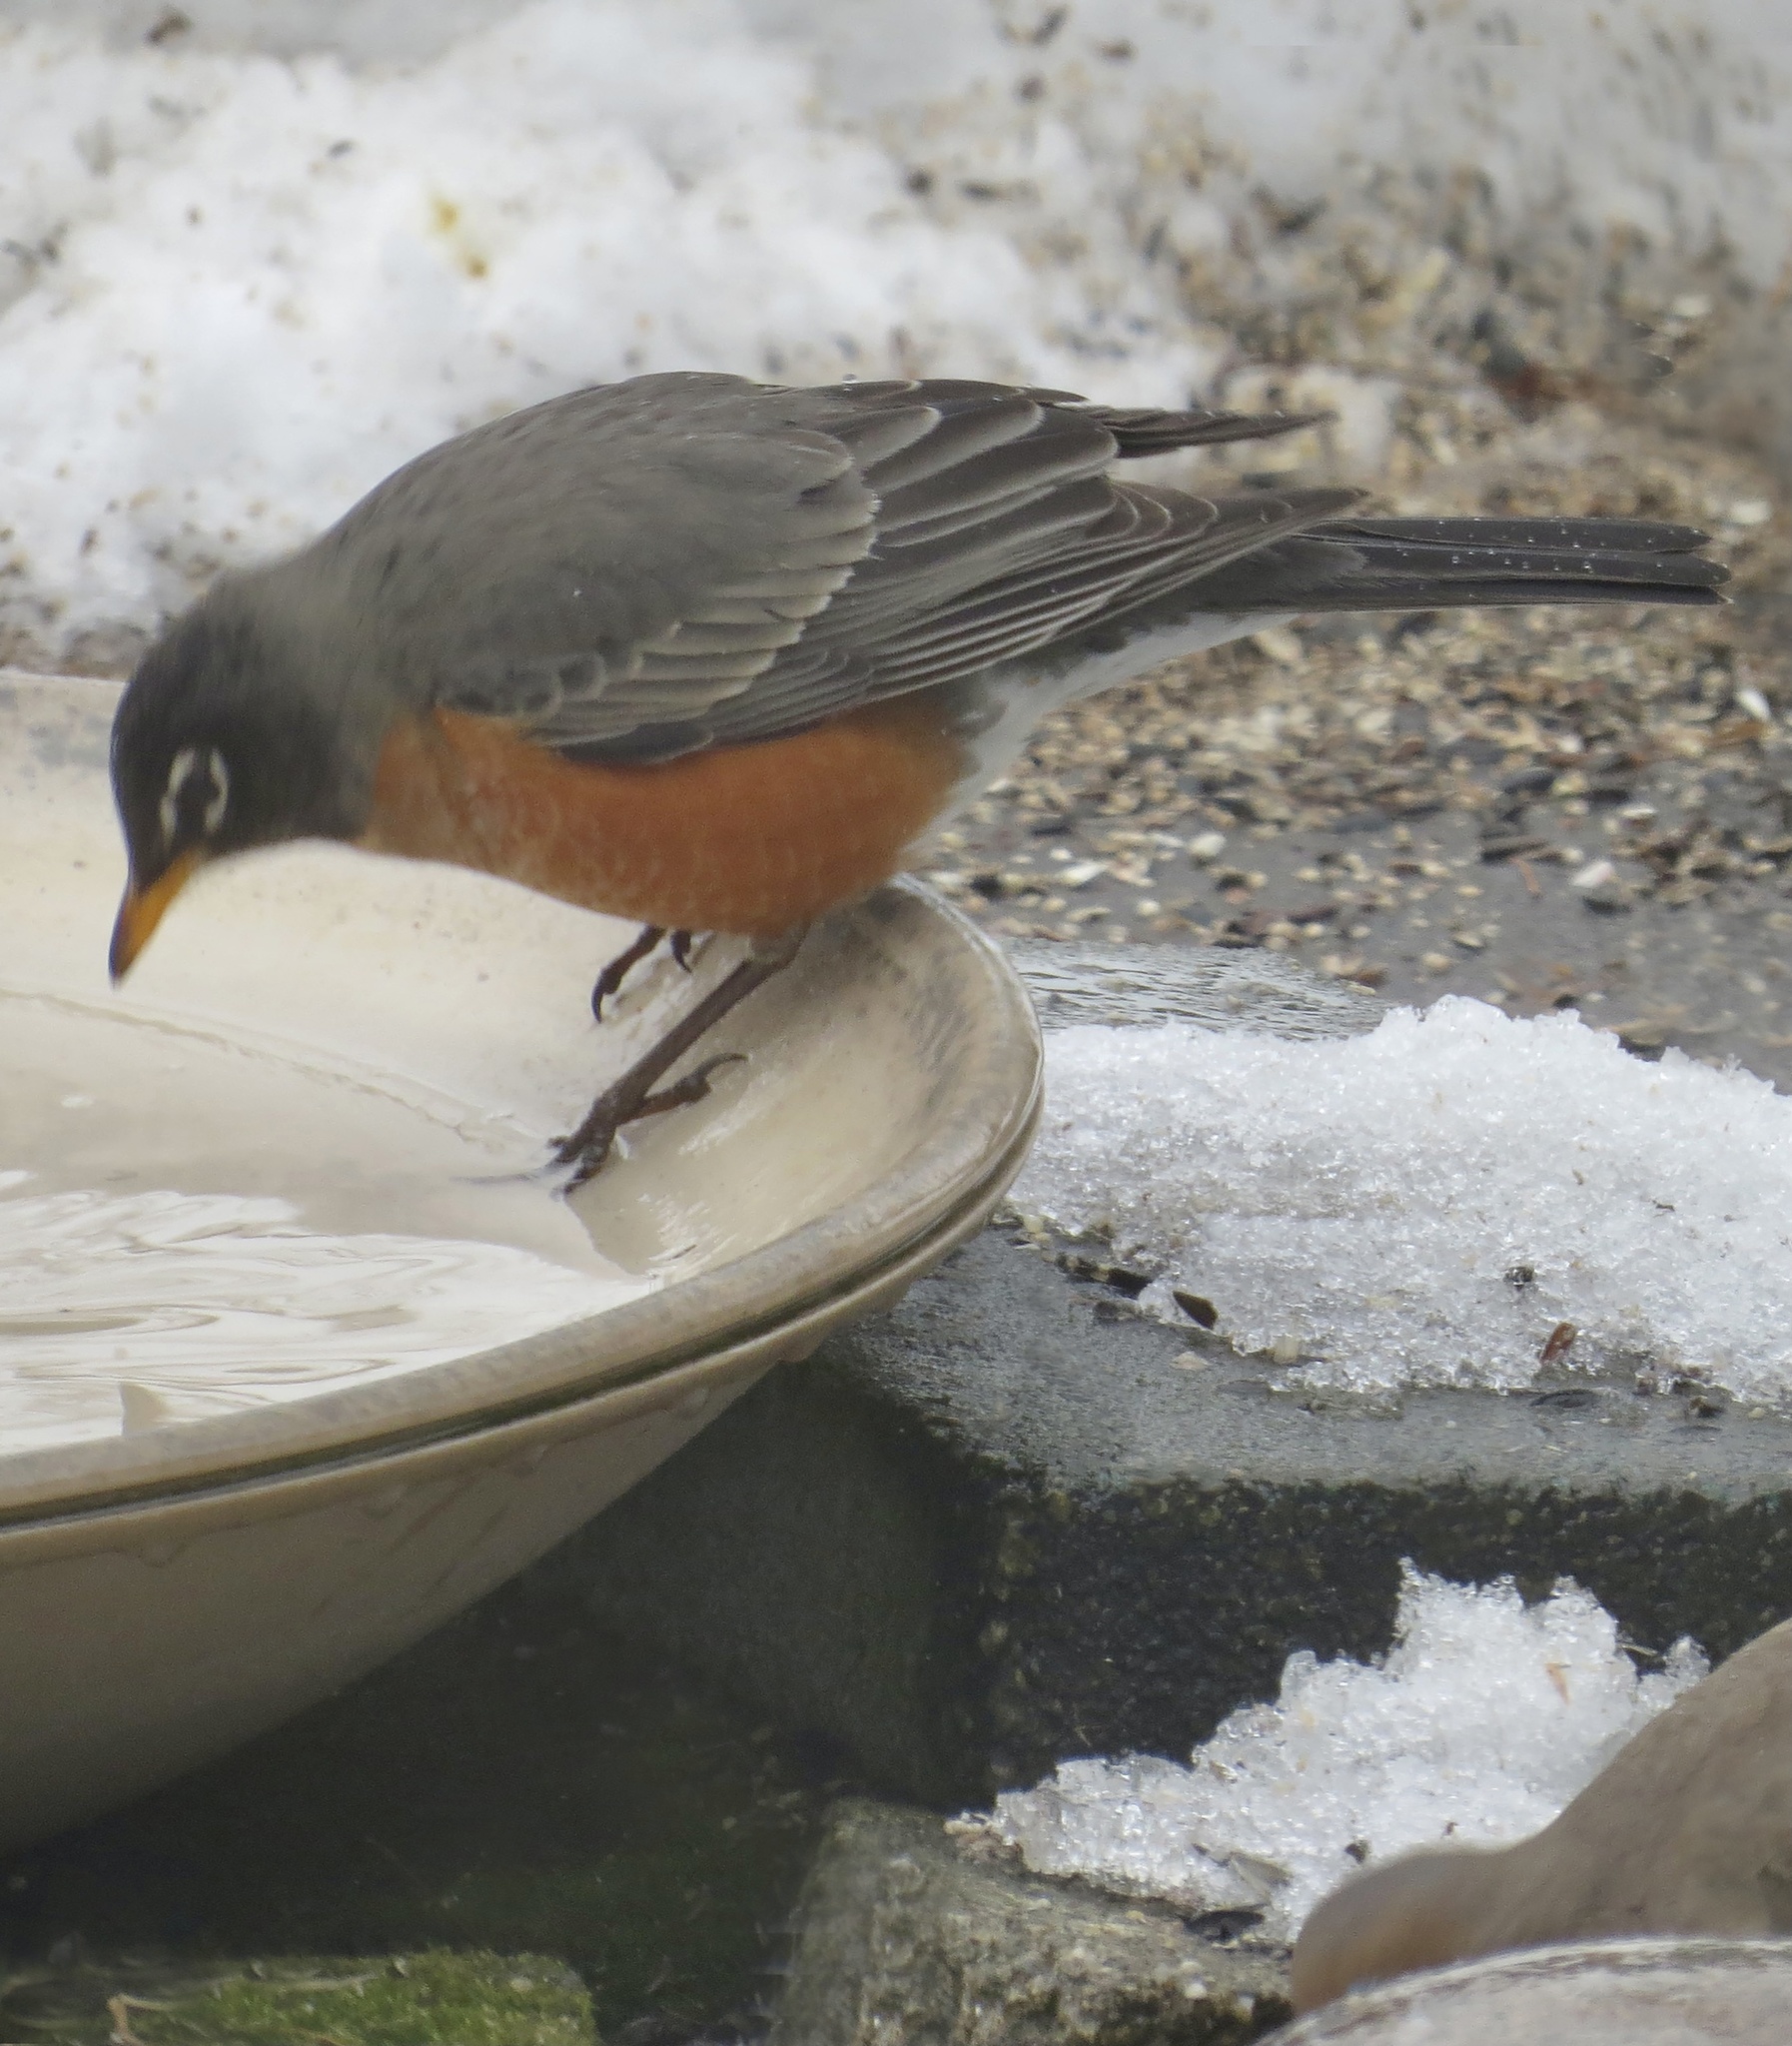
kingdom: Animalia
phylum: Chordata
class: Aves
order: Passeriformes
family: Turdidae
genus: Turdus
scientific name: Turdus migratorius
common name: American robin
